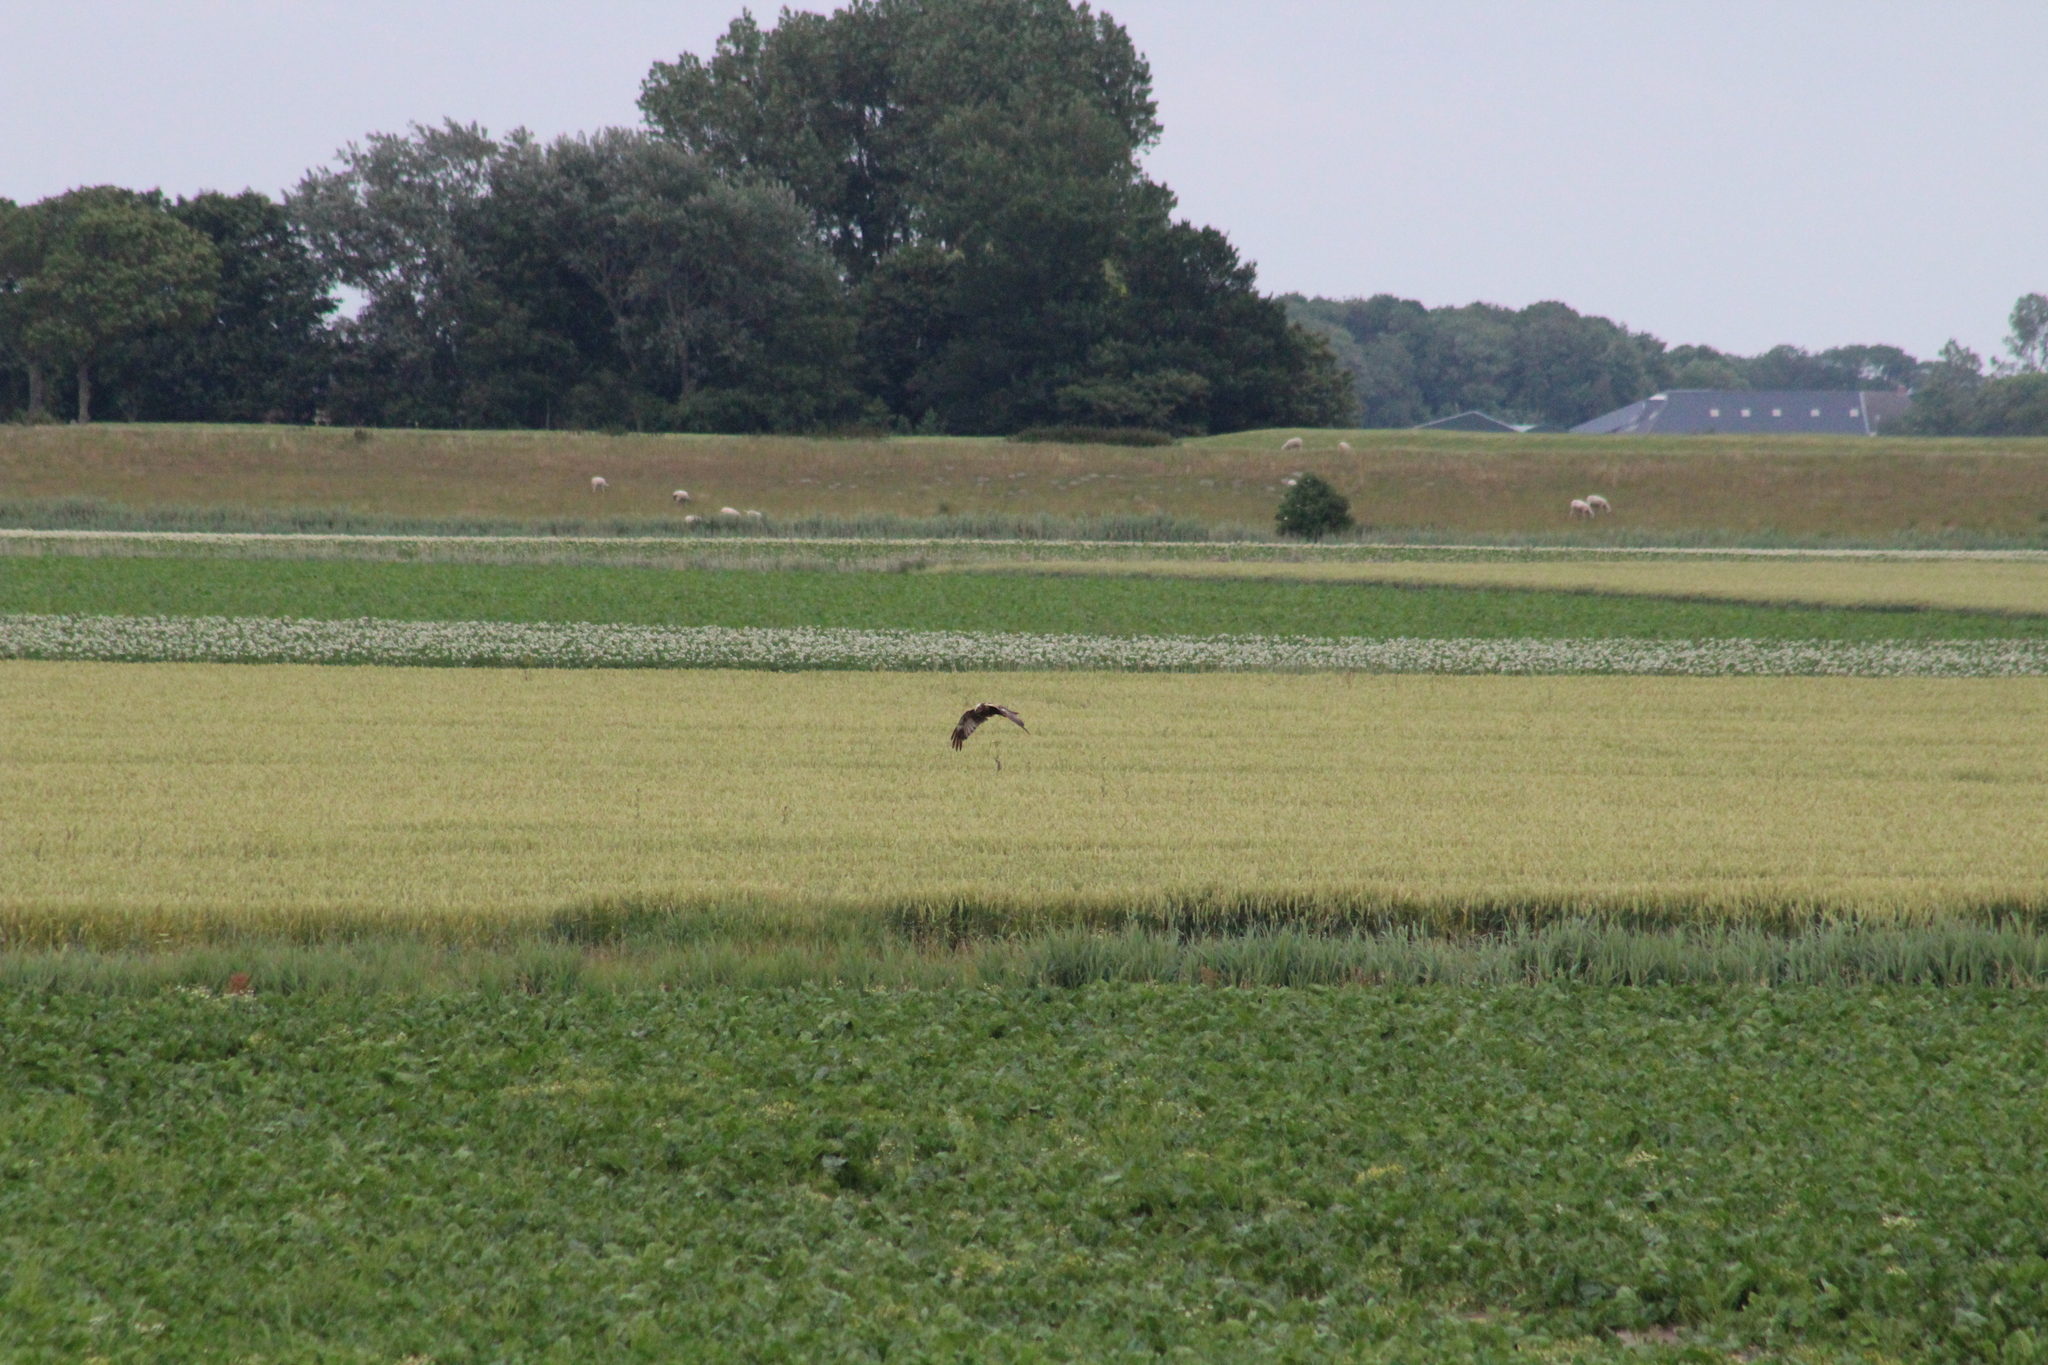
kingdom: Animalia
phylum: Chordata
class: Aves
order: Accipitriformes
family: Accipitridae
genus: Circus
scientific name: Circus aeruginosus
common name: Western marsh harrier
